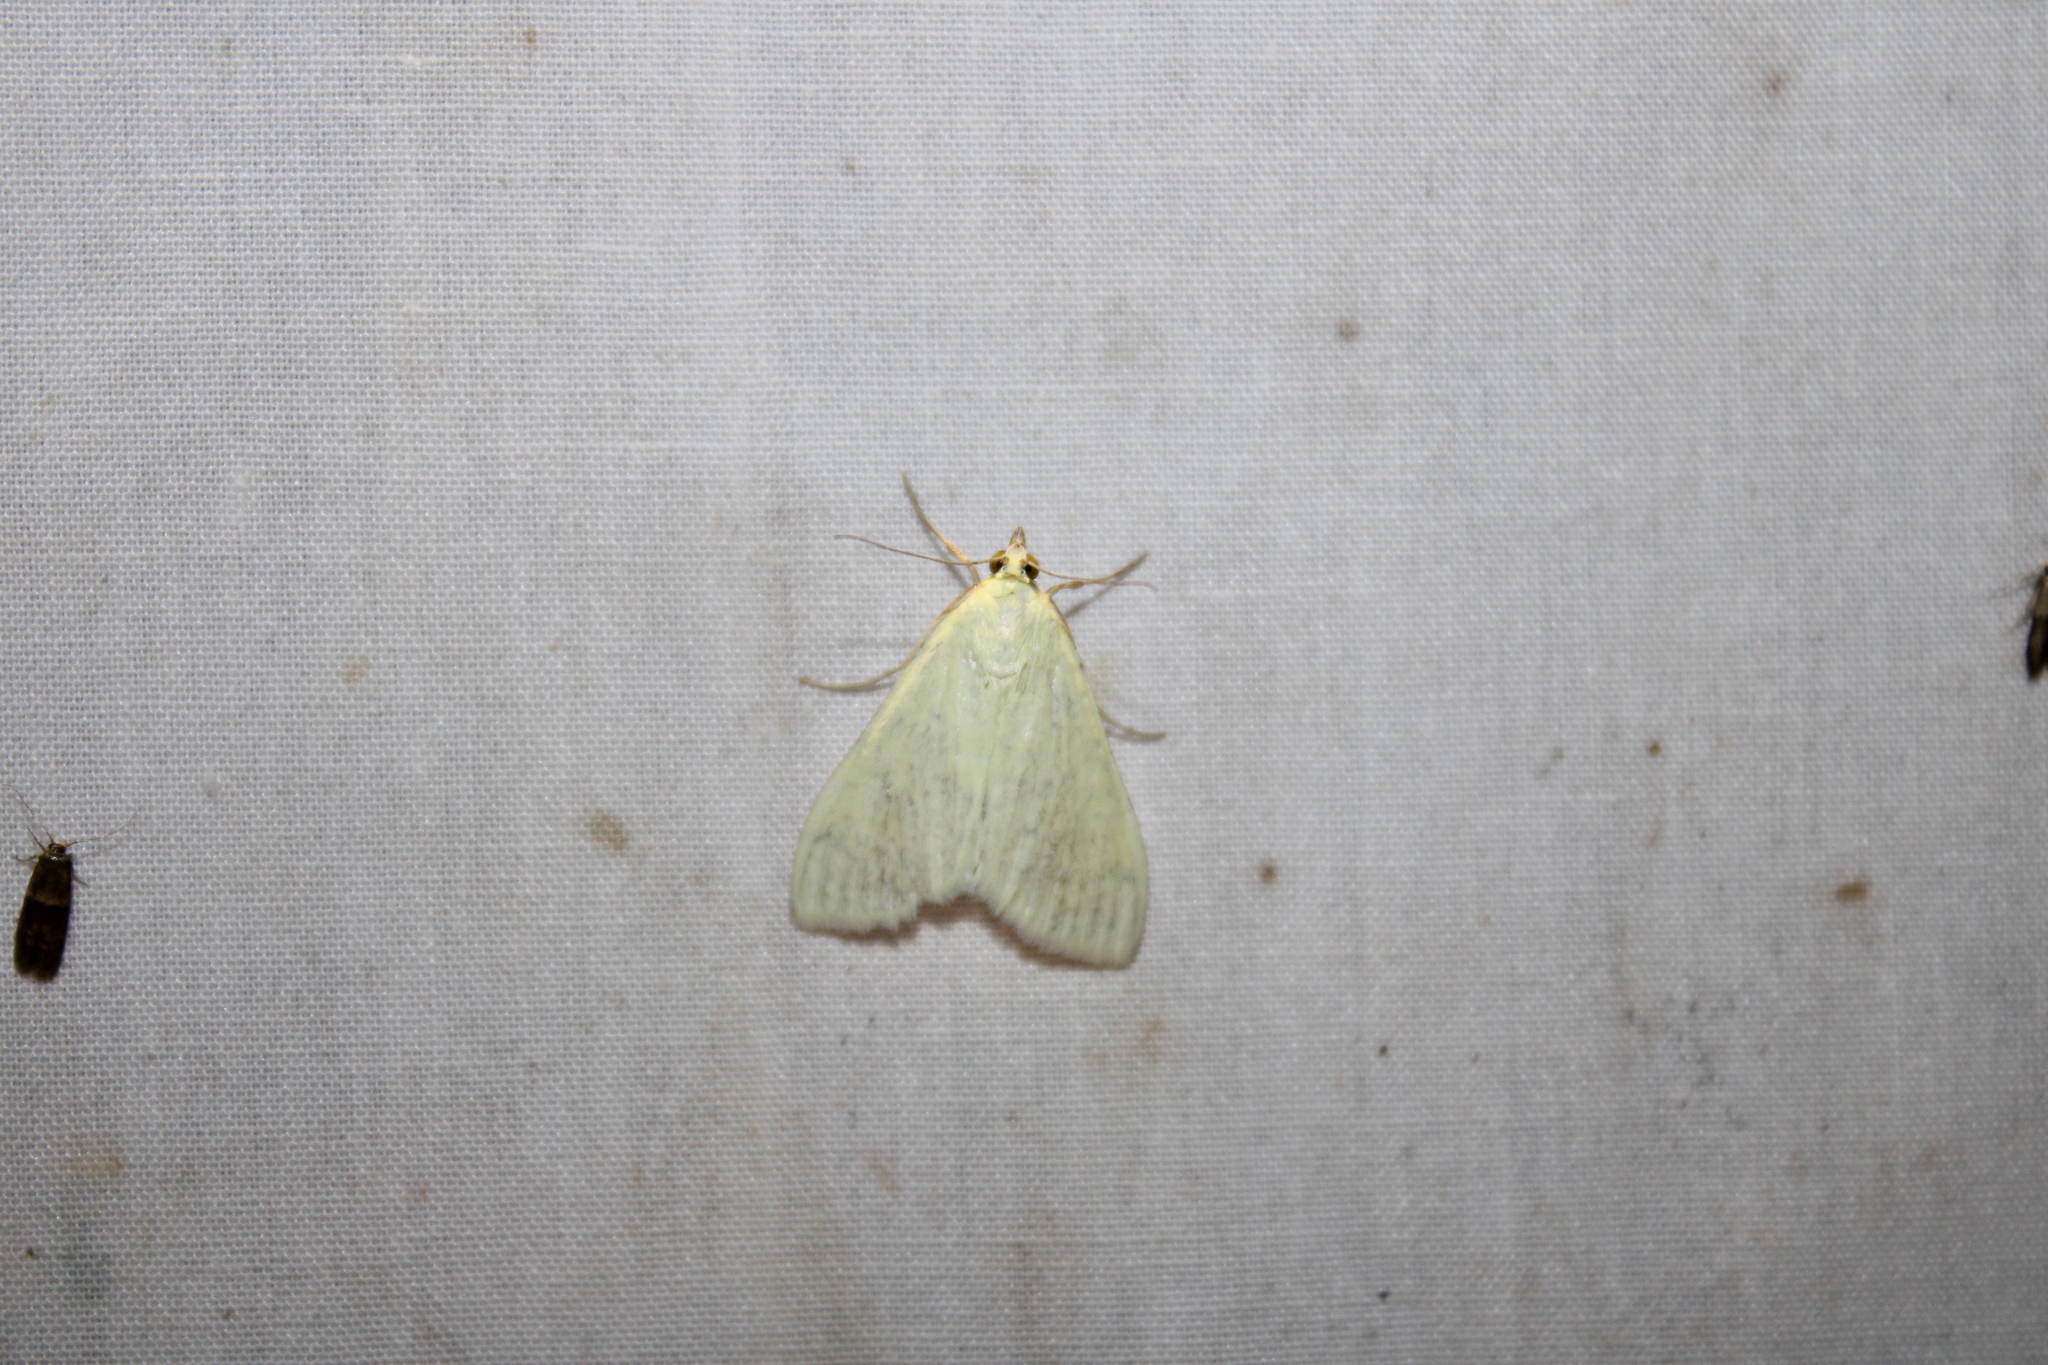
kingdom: Animalia
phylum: Arthropoda
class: Insecta
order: Lepidoptera
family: Crambidae
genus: Sitochroa
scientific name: Sitochroa palealis
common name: Greenish-yellow sitochroa moth
